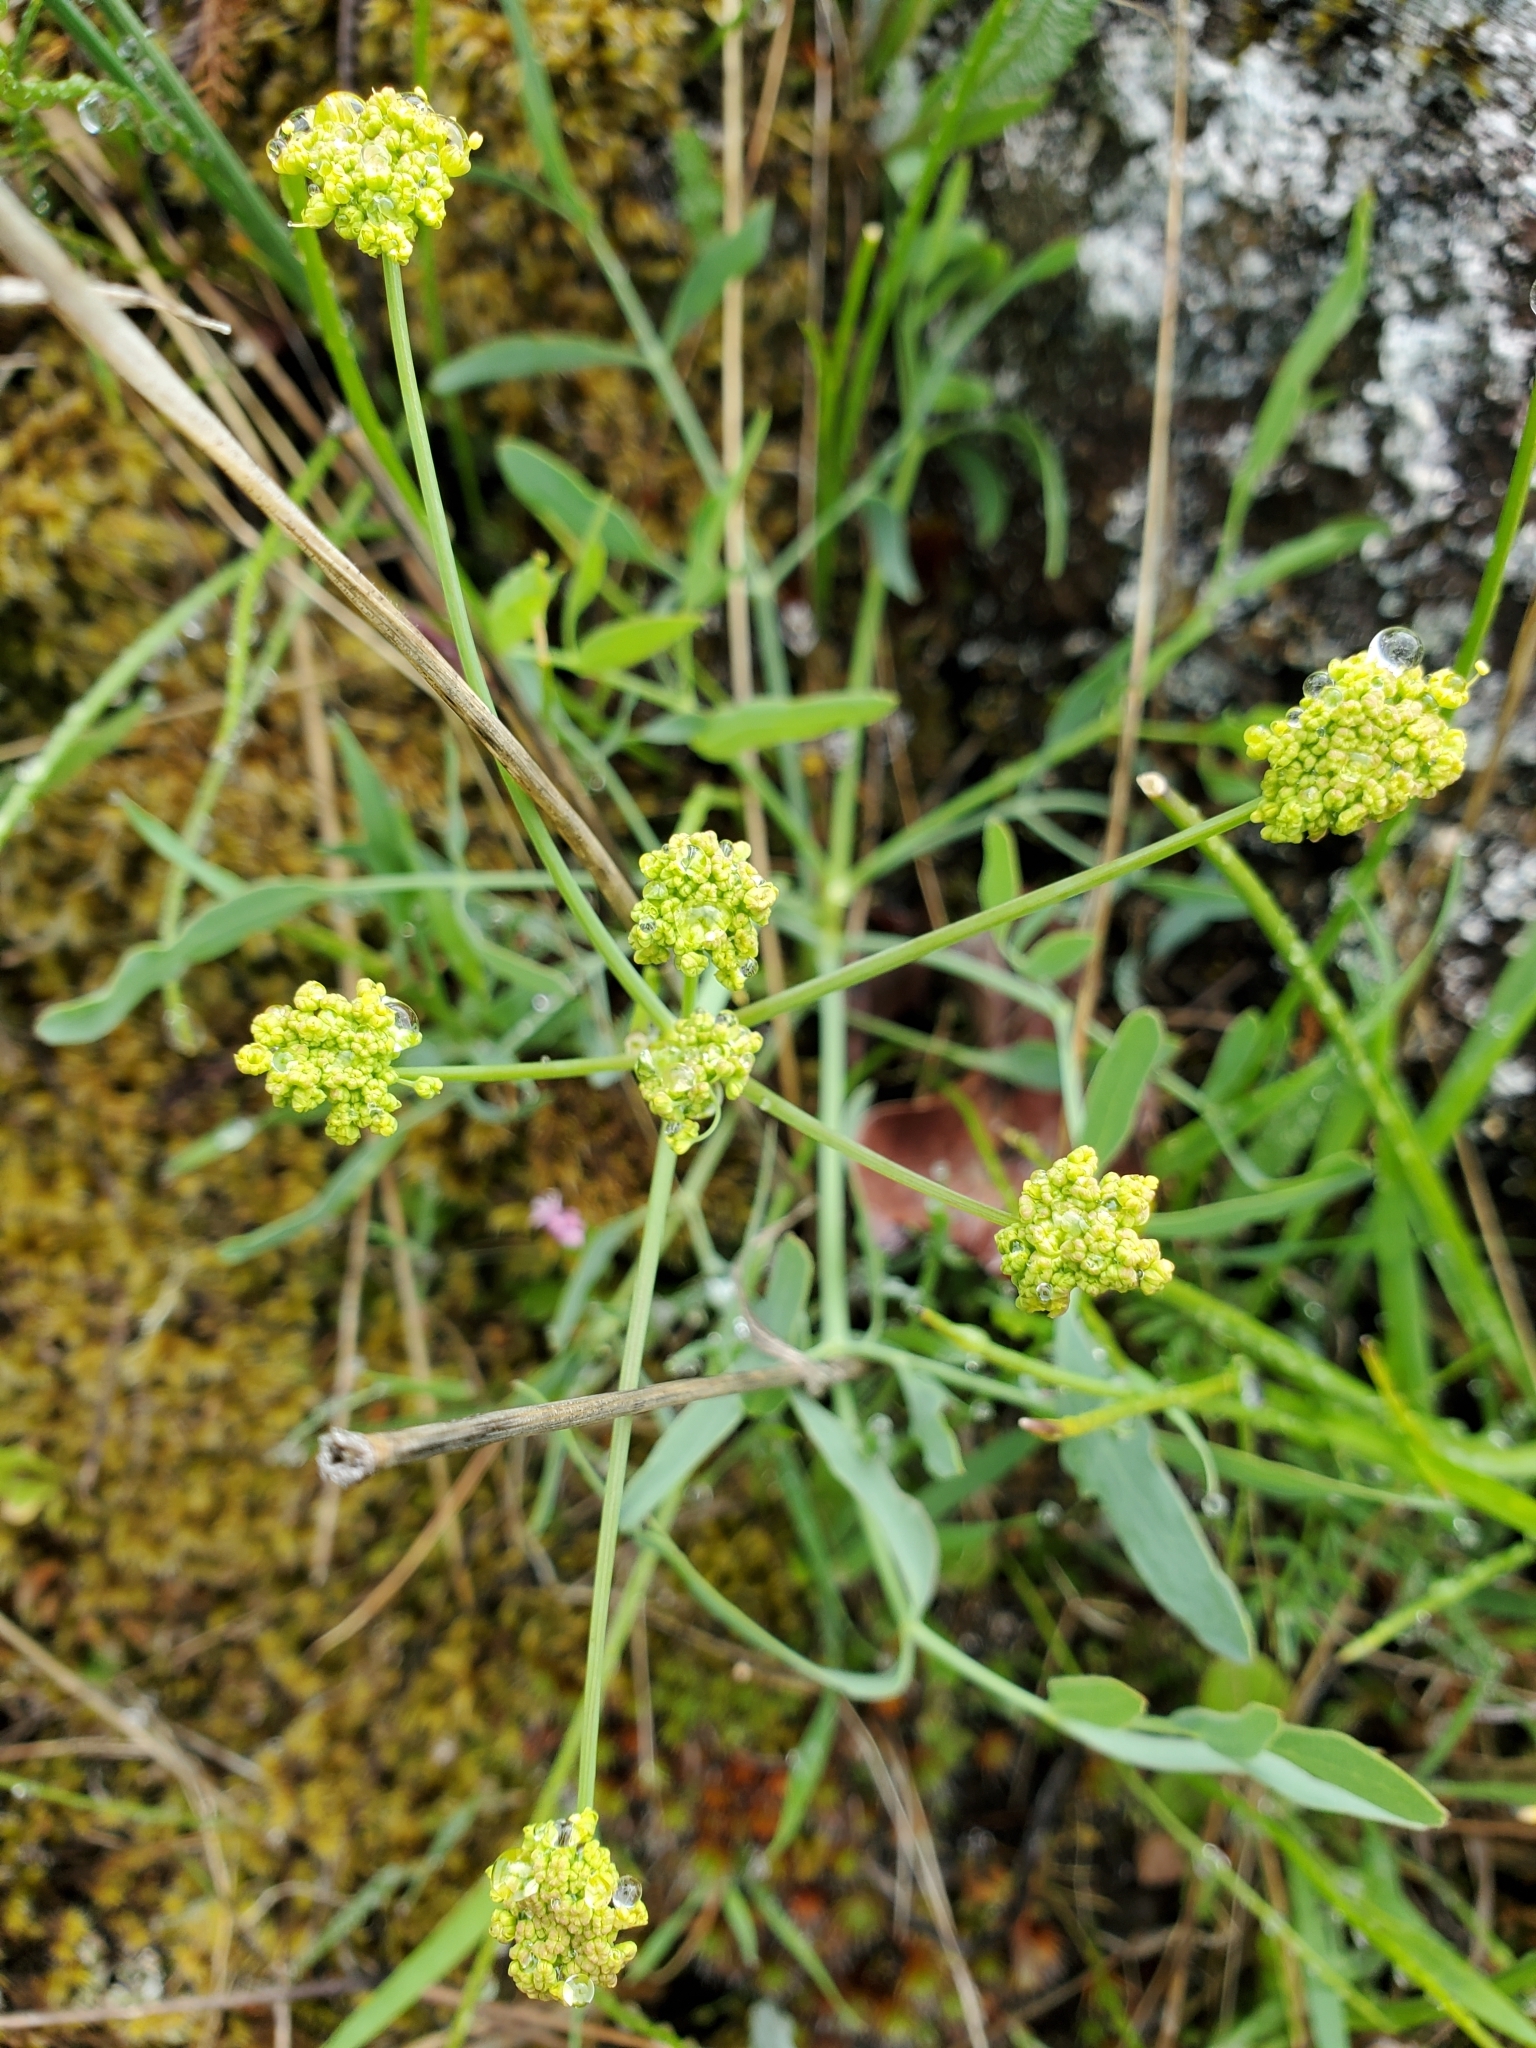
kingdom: Plantae
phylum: Tracheophyta
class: Magnoliopsida
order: Apiales
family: Apiaceae
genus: Lomatium
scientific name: Lomatium nudicaule
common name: Pestle lomatium
